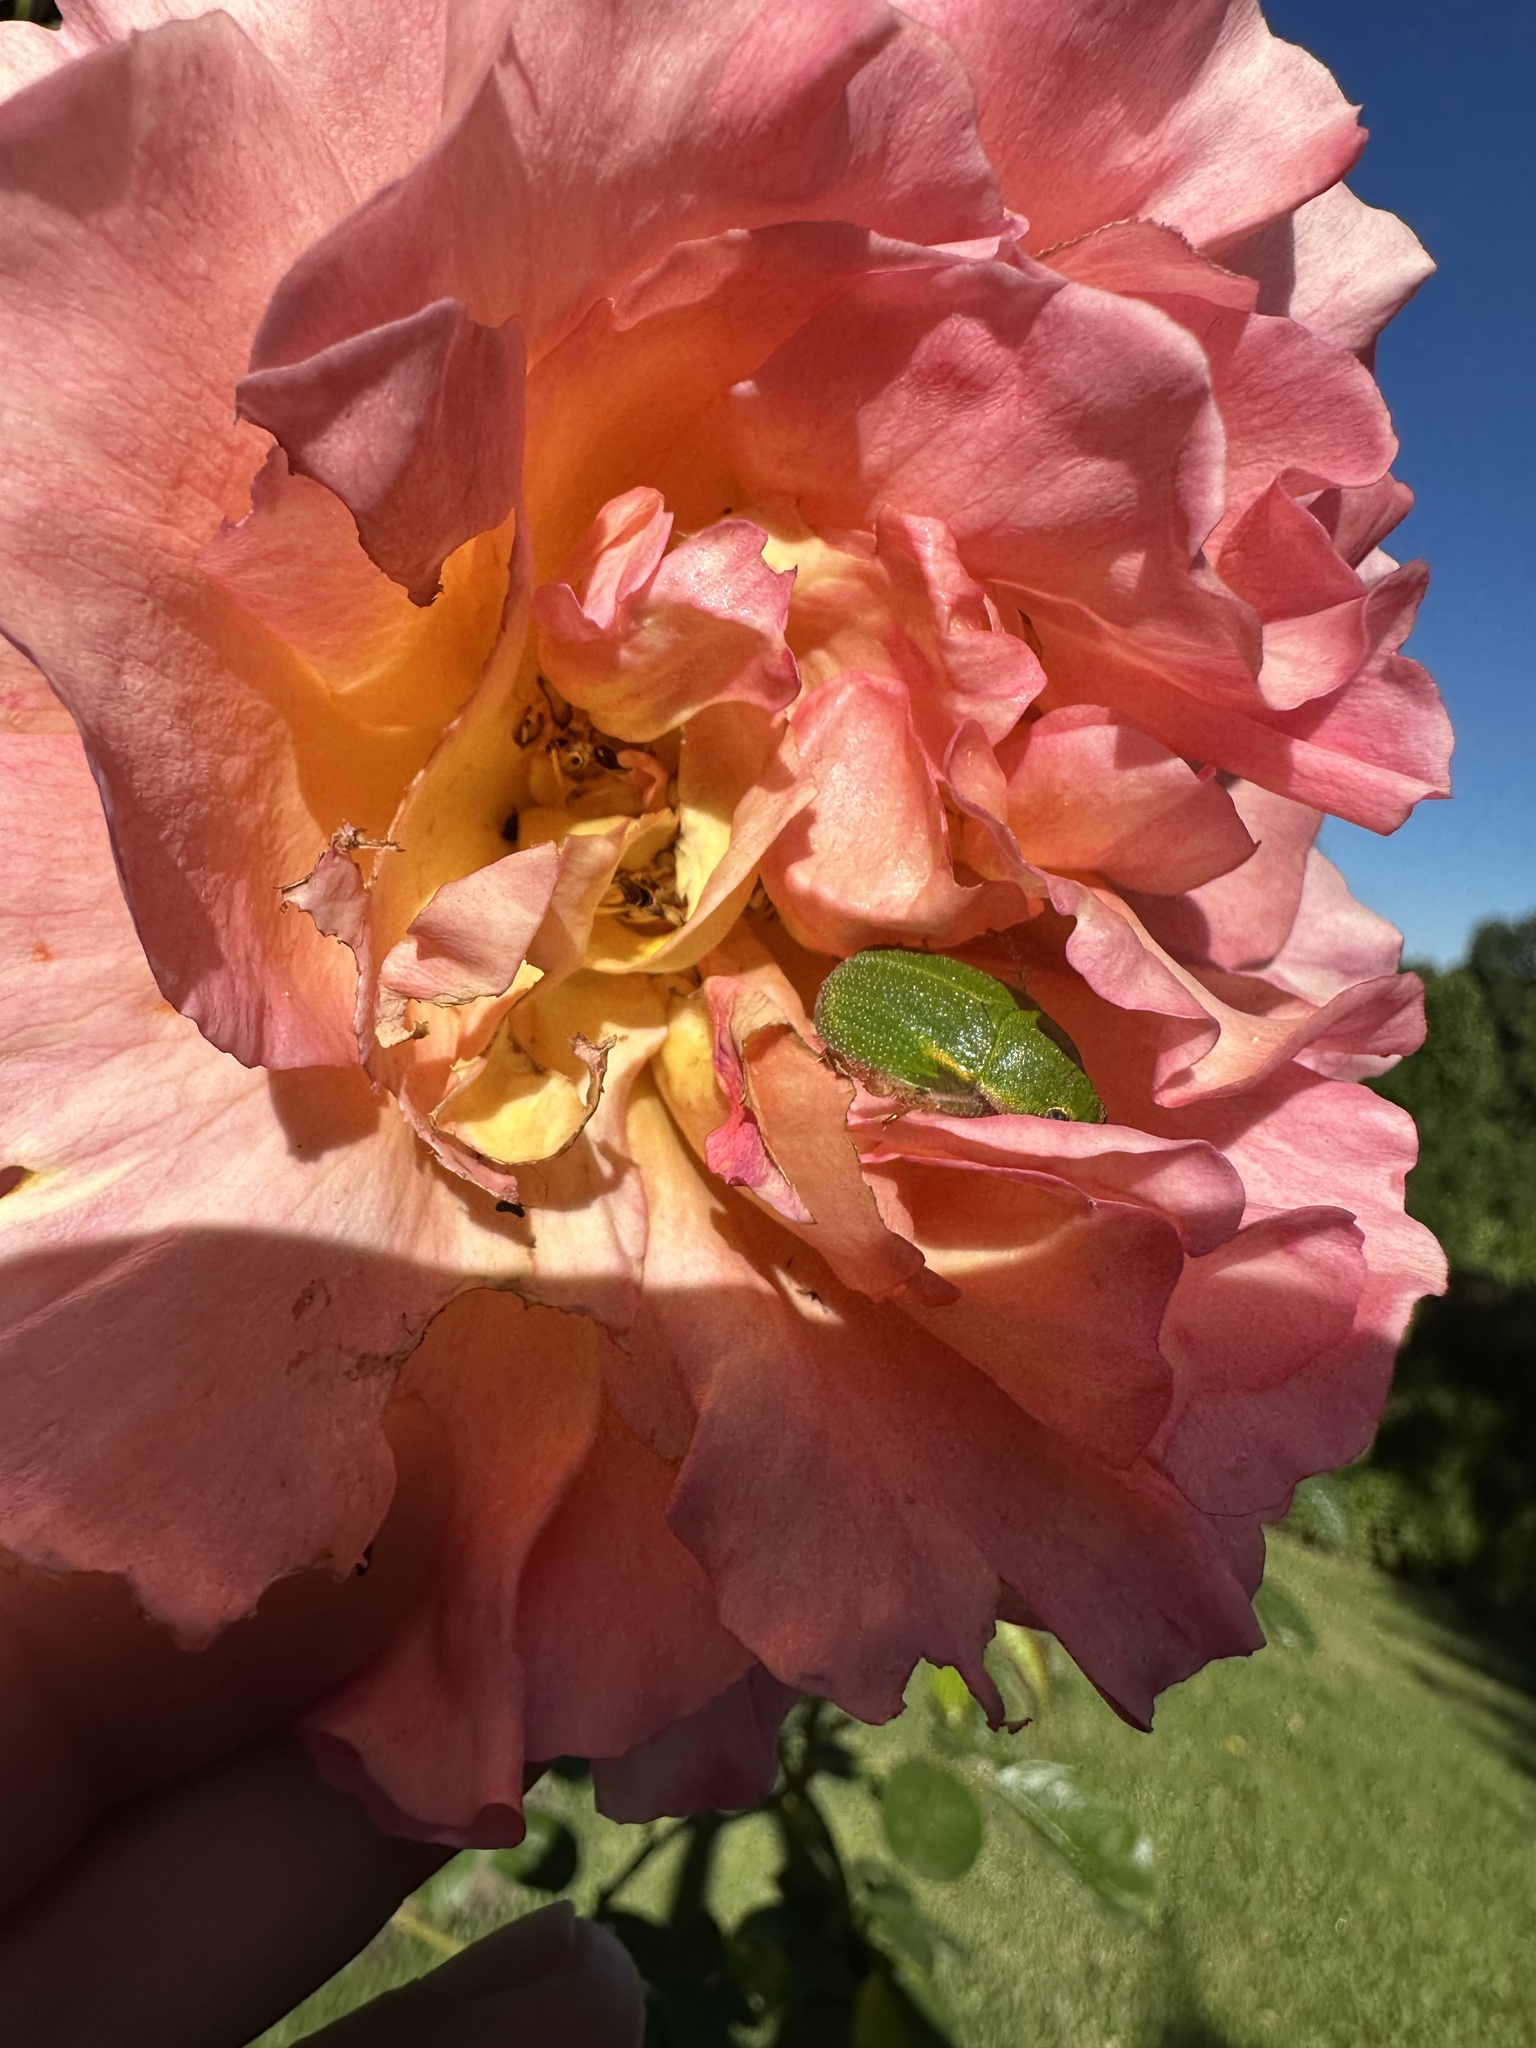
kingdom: Animalia
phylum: Arthropoda
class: Insecta
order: Coleoptera
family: Scarabaeidae
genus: Hylamorpha
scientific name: Hylamorpha elegans
